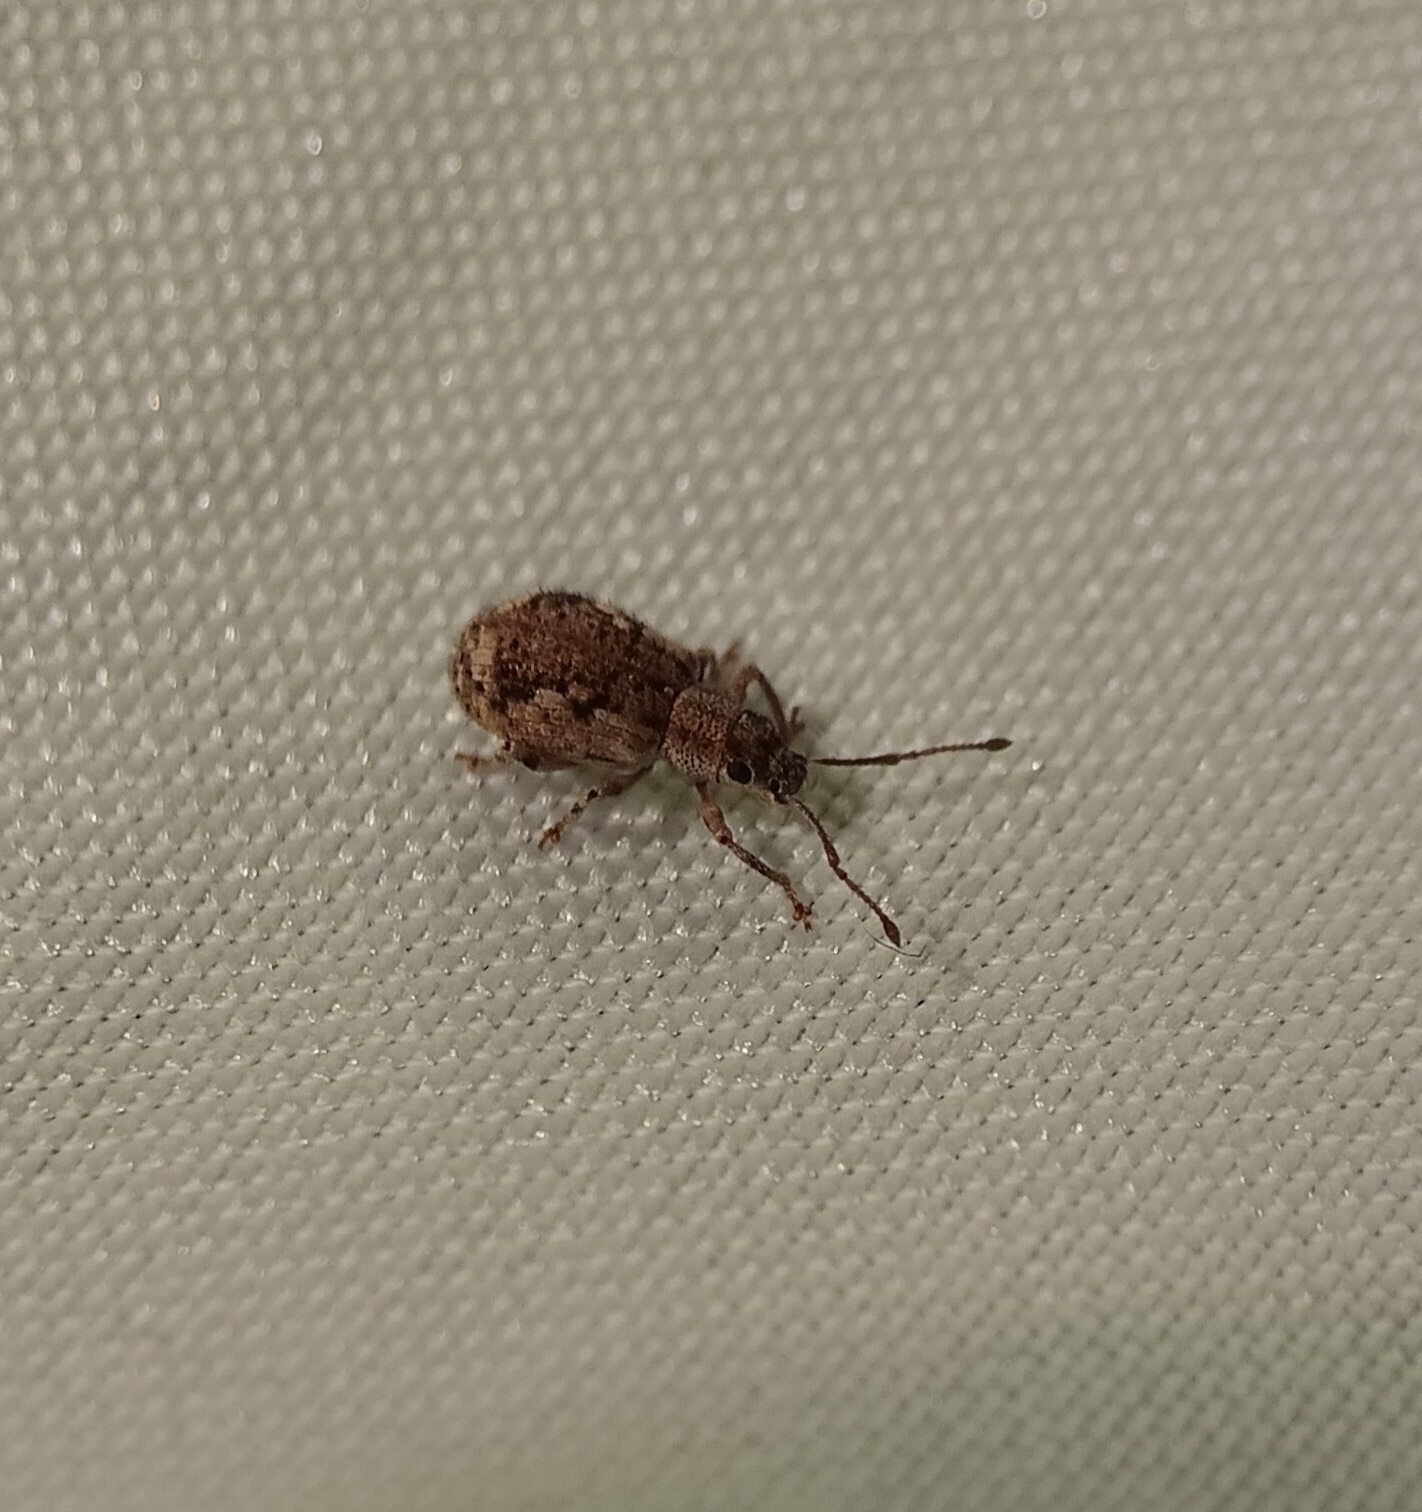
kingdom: Animalia
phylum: Arthropoda
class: Insecta
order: Coleoptera
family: Curculionidae
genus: Pseudoedophrys
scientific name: Pseudoedophrys hilleri
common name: Weevil
